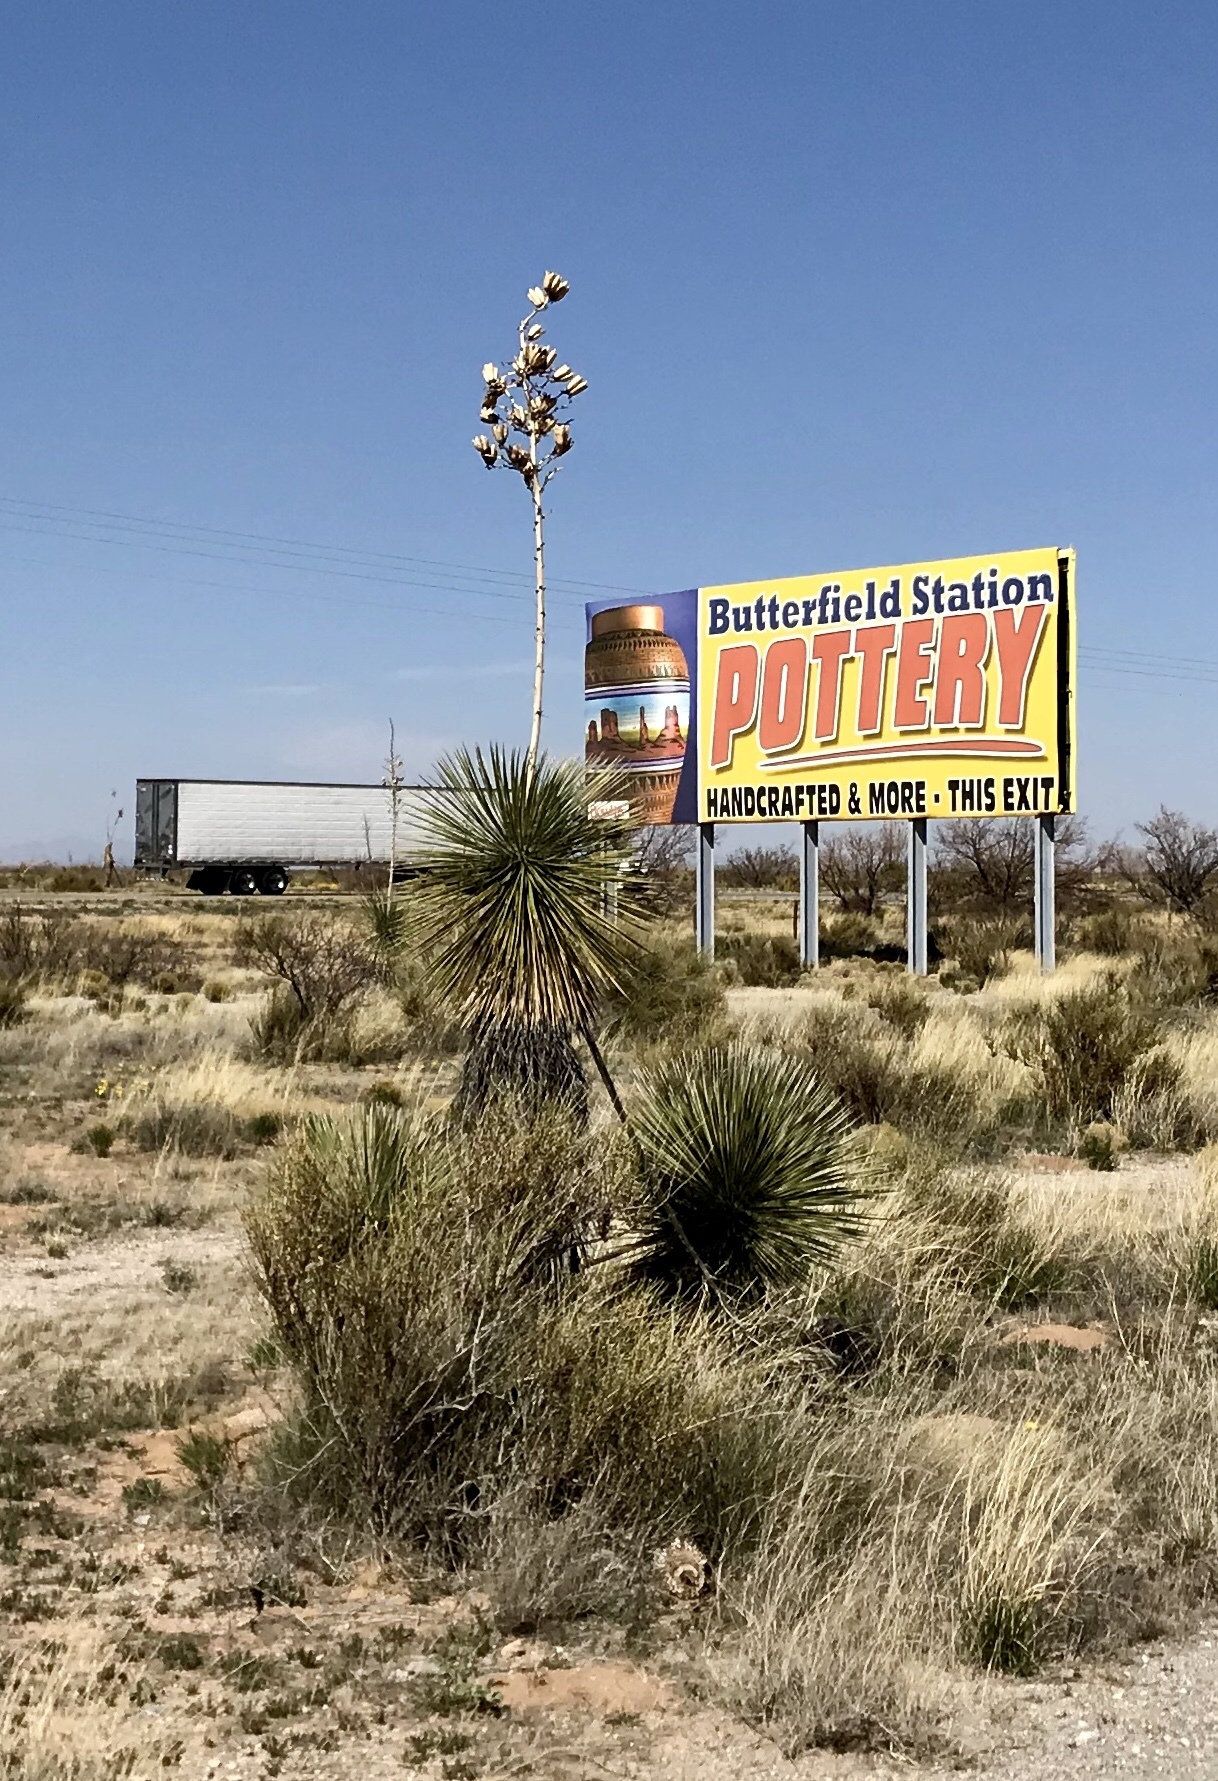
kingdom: Plantae
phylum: Tracheophyta
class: Liliopsida
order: Asparagales
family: Asparagaceae
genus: Yucca
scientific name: Yucca elata
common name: Palmella
